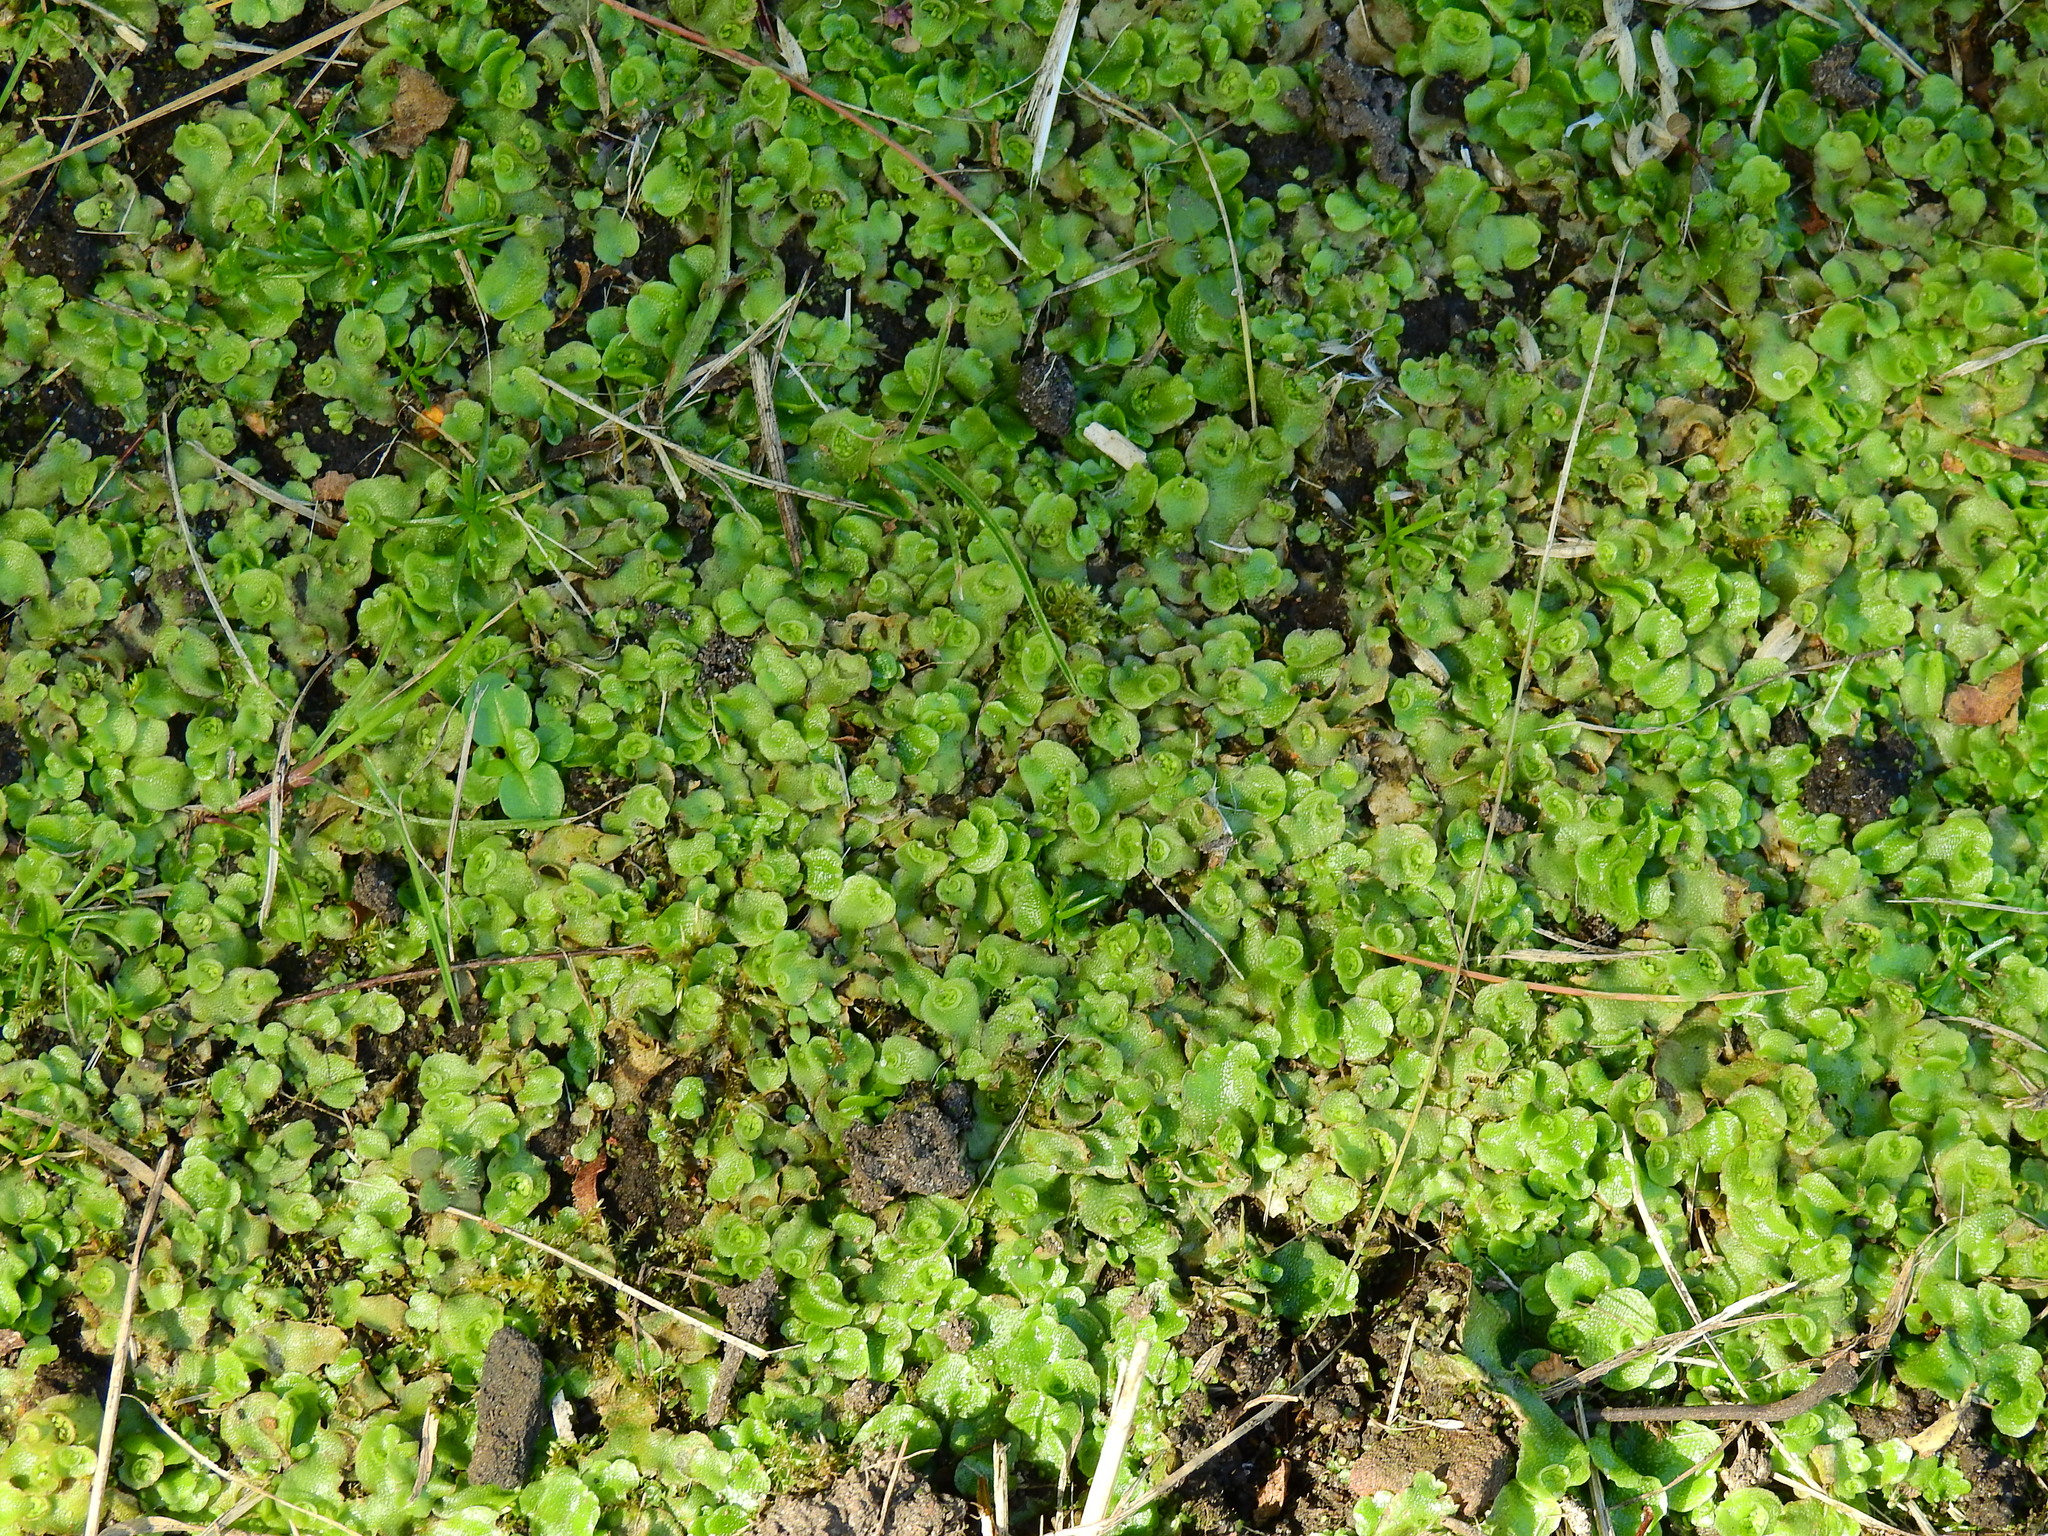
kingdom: Plantae
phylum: Marchantiophyta
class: Marchantiopsida
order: Lunulariales
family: Lunulariaceae
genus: Lunularia
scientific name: Lunularia cruciata
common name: Crescent-cup liverwort
